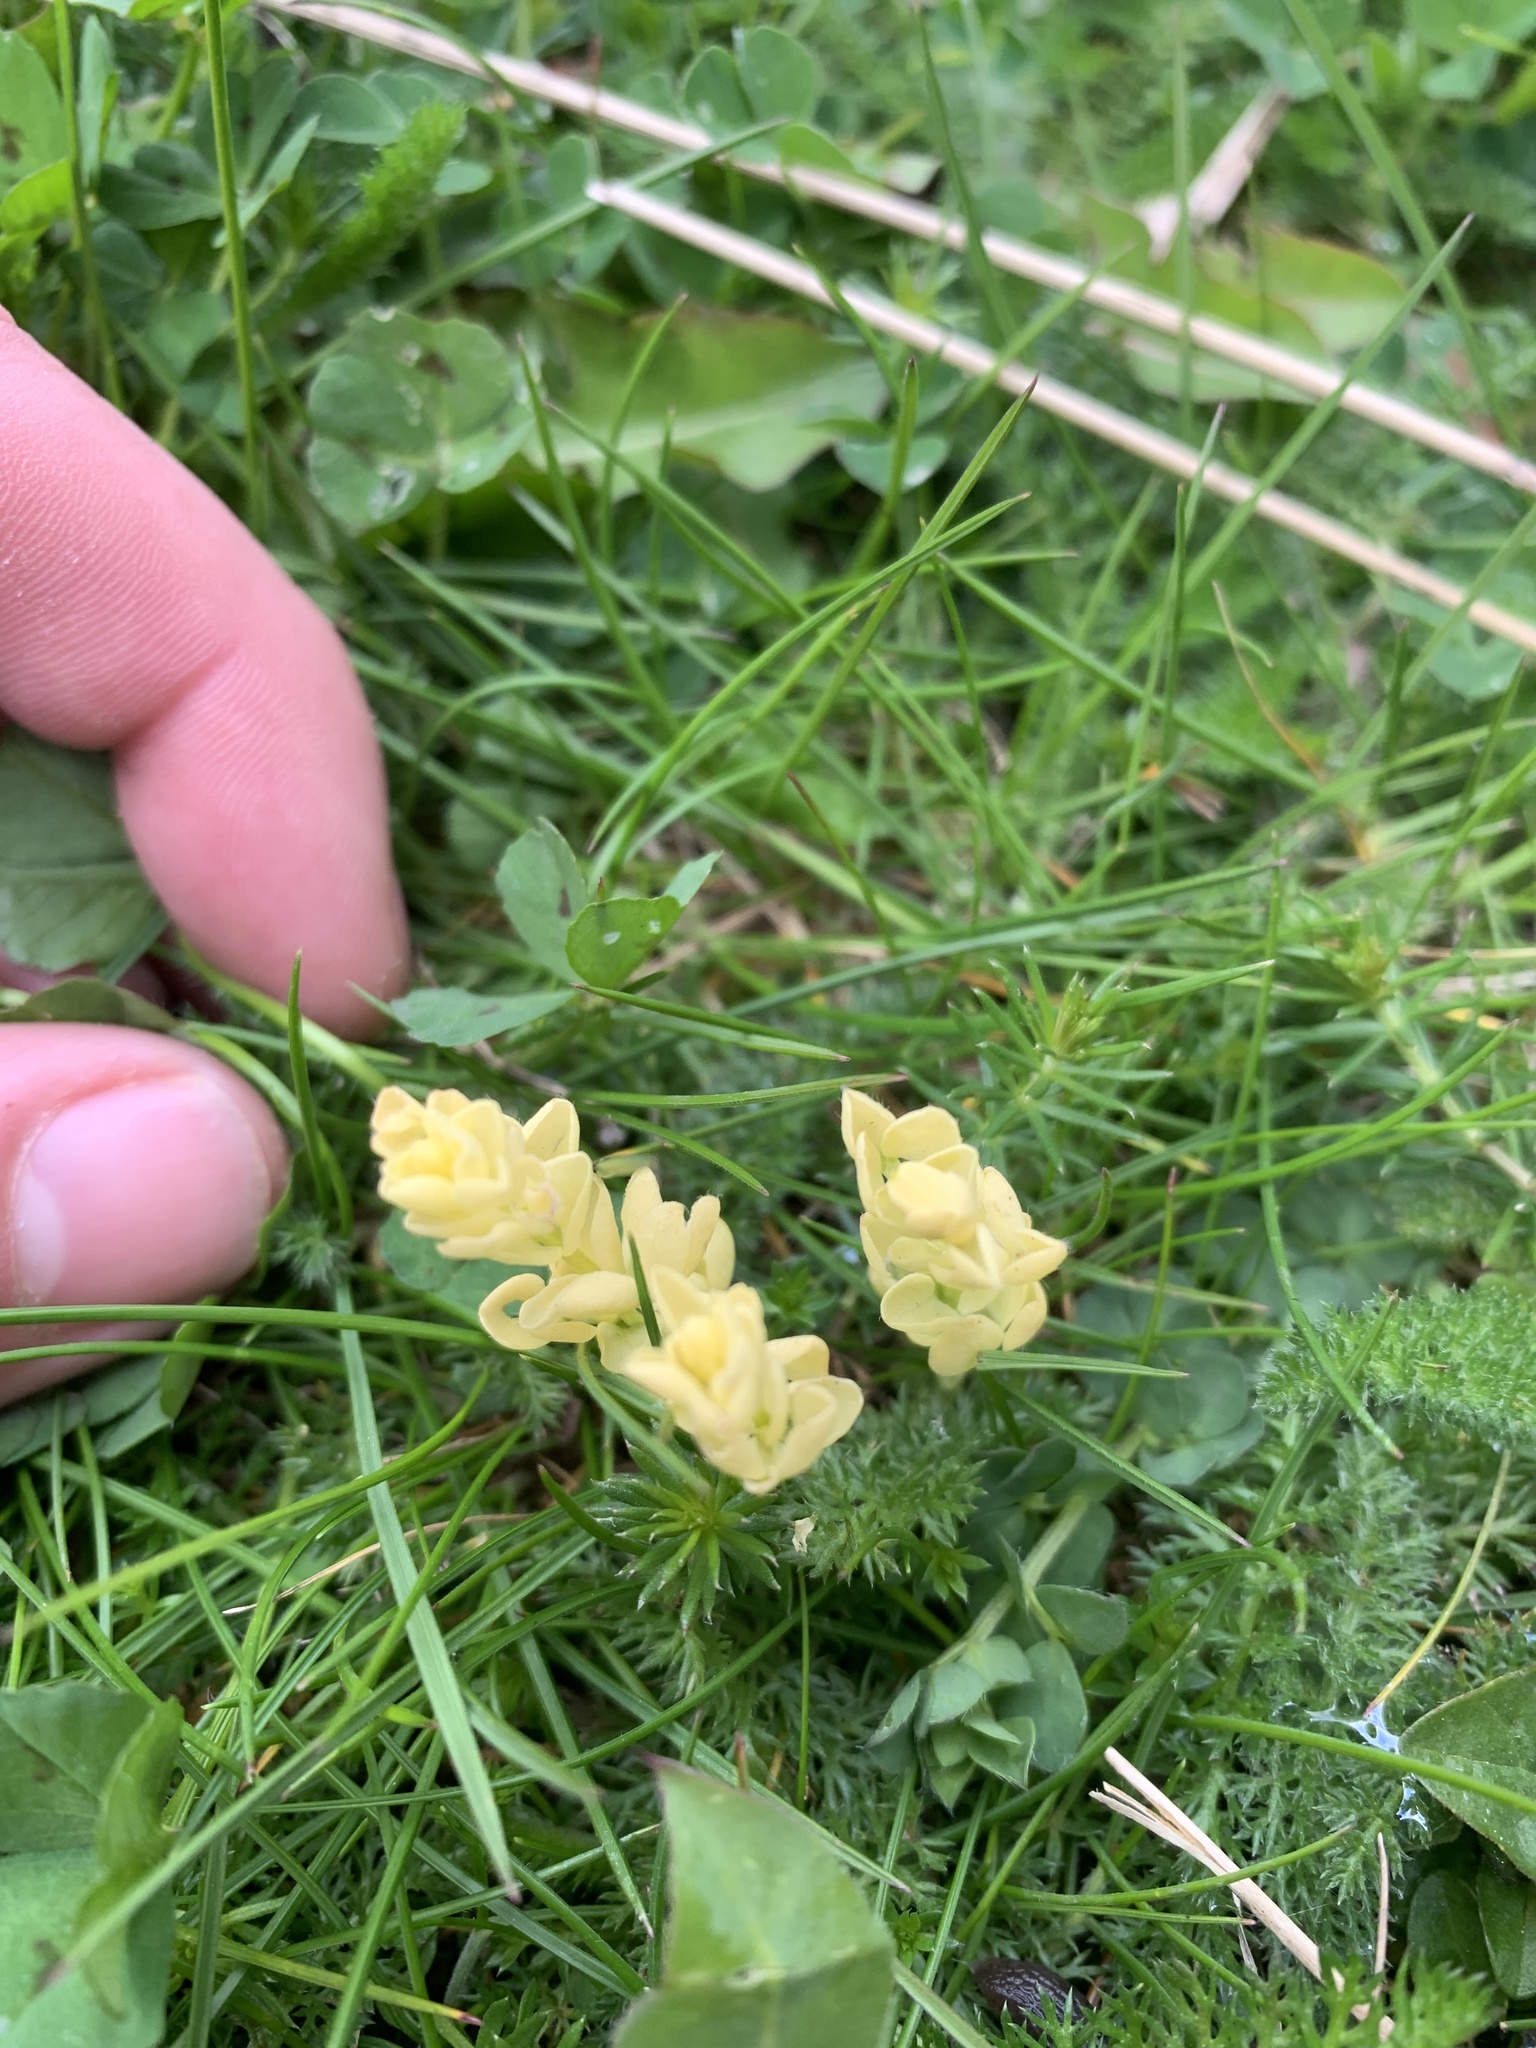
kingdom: Plantae
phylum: Tracheophyta
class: Magnoliopsida
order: Ericales
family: Primulaceae
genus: Primula
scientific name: Primula vulgaris
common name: Primrose
